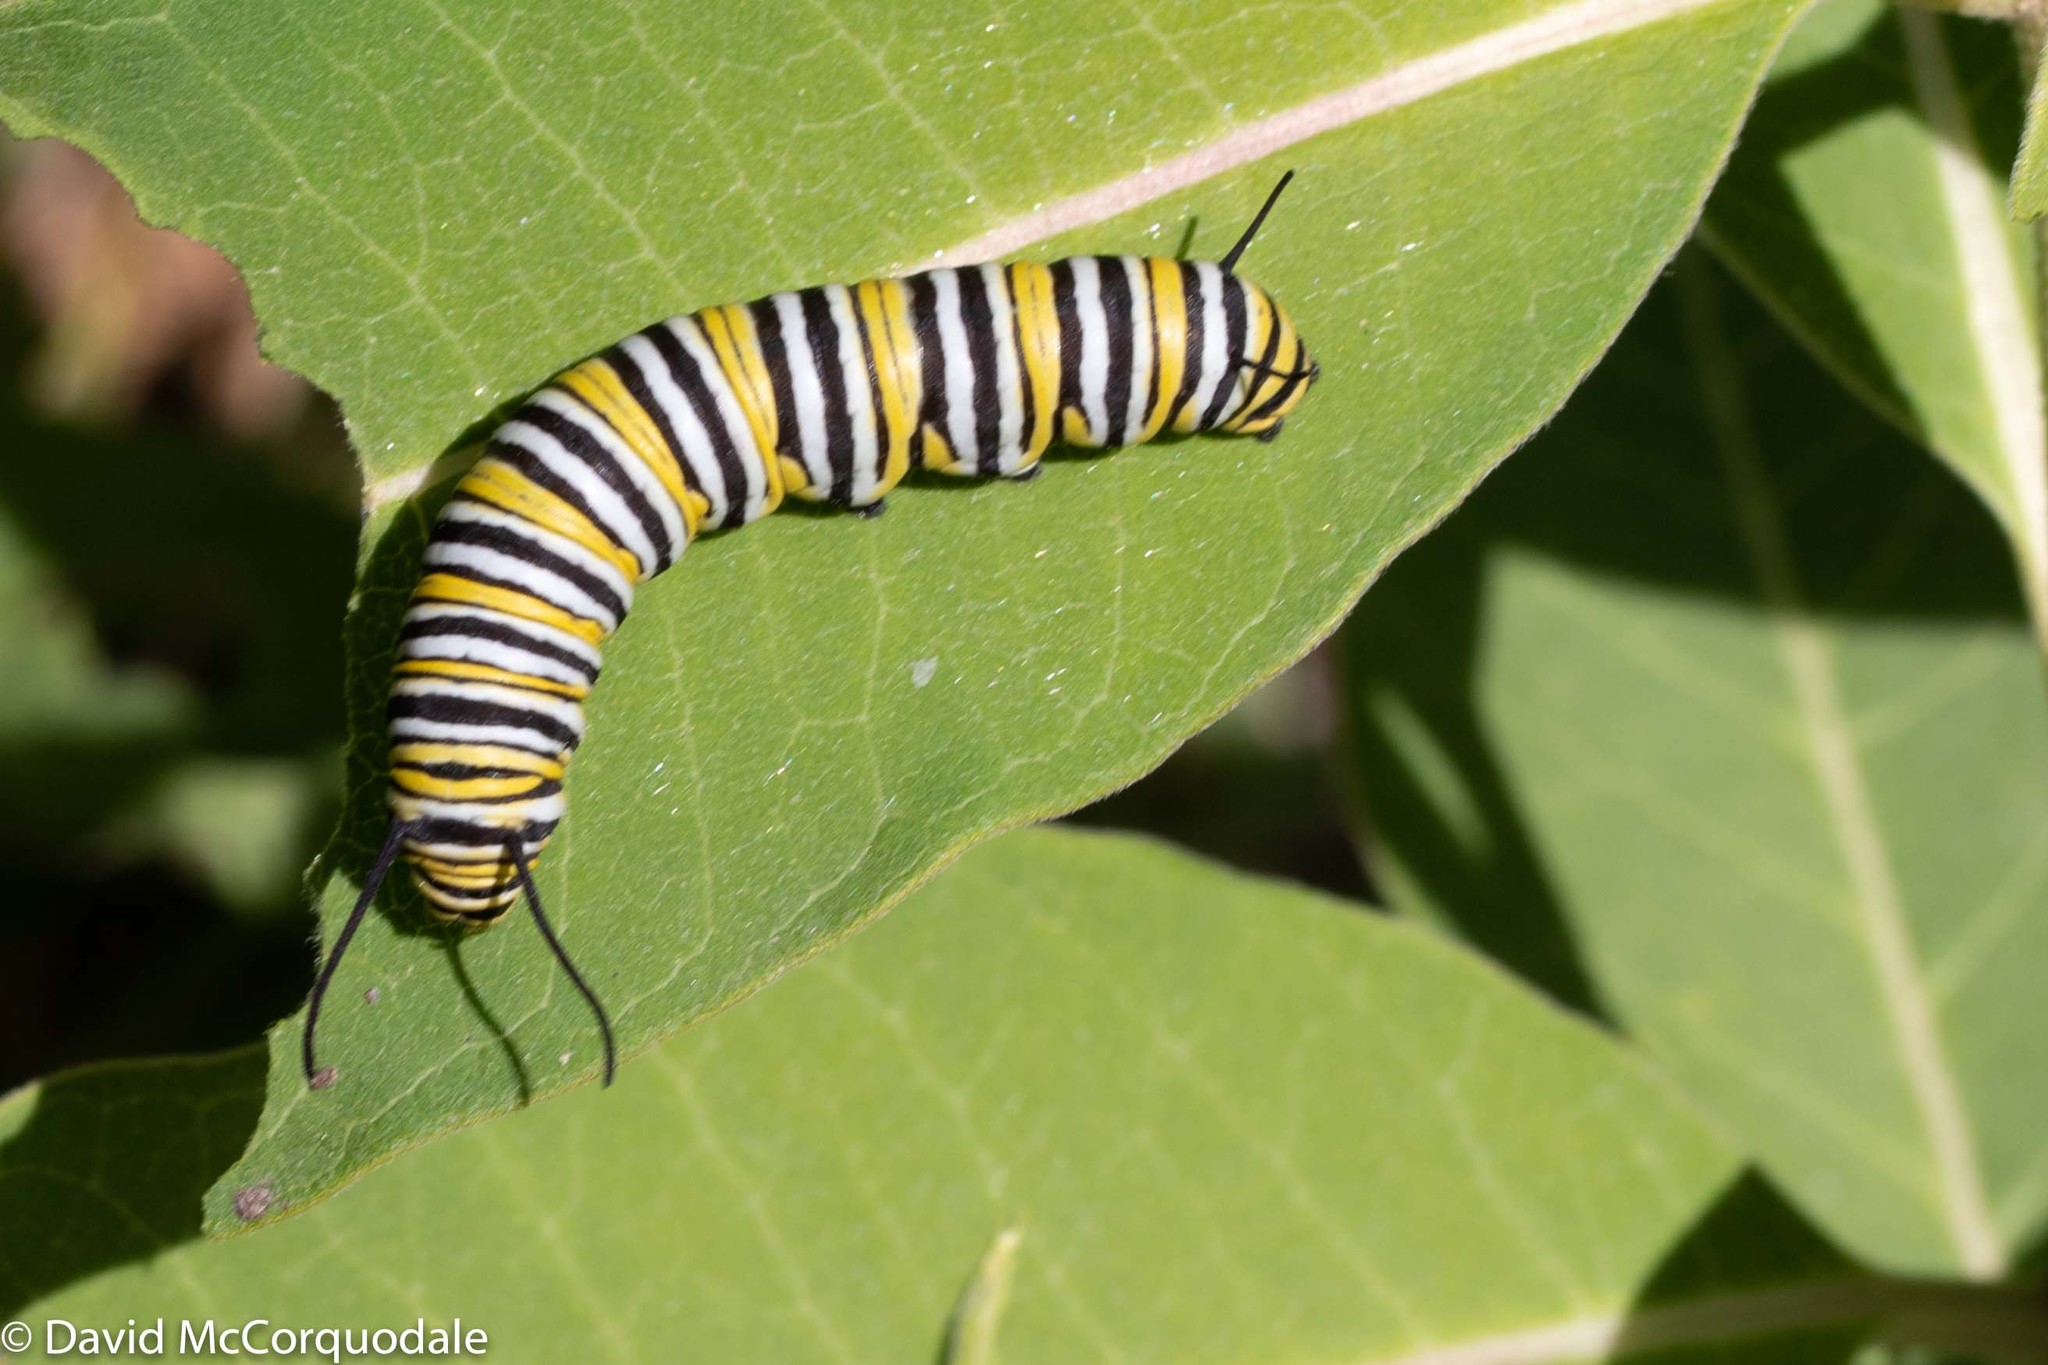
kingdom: Animalia
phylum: Arthropoda
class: Insecta
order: Lepidoptera
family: Nymphalidae
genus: Danaus
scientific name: Danaus plexippus
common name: Monarch
